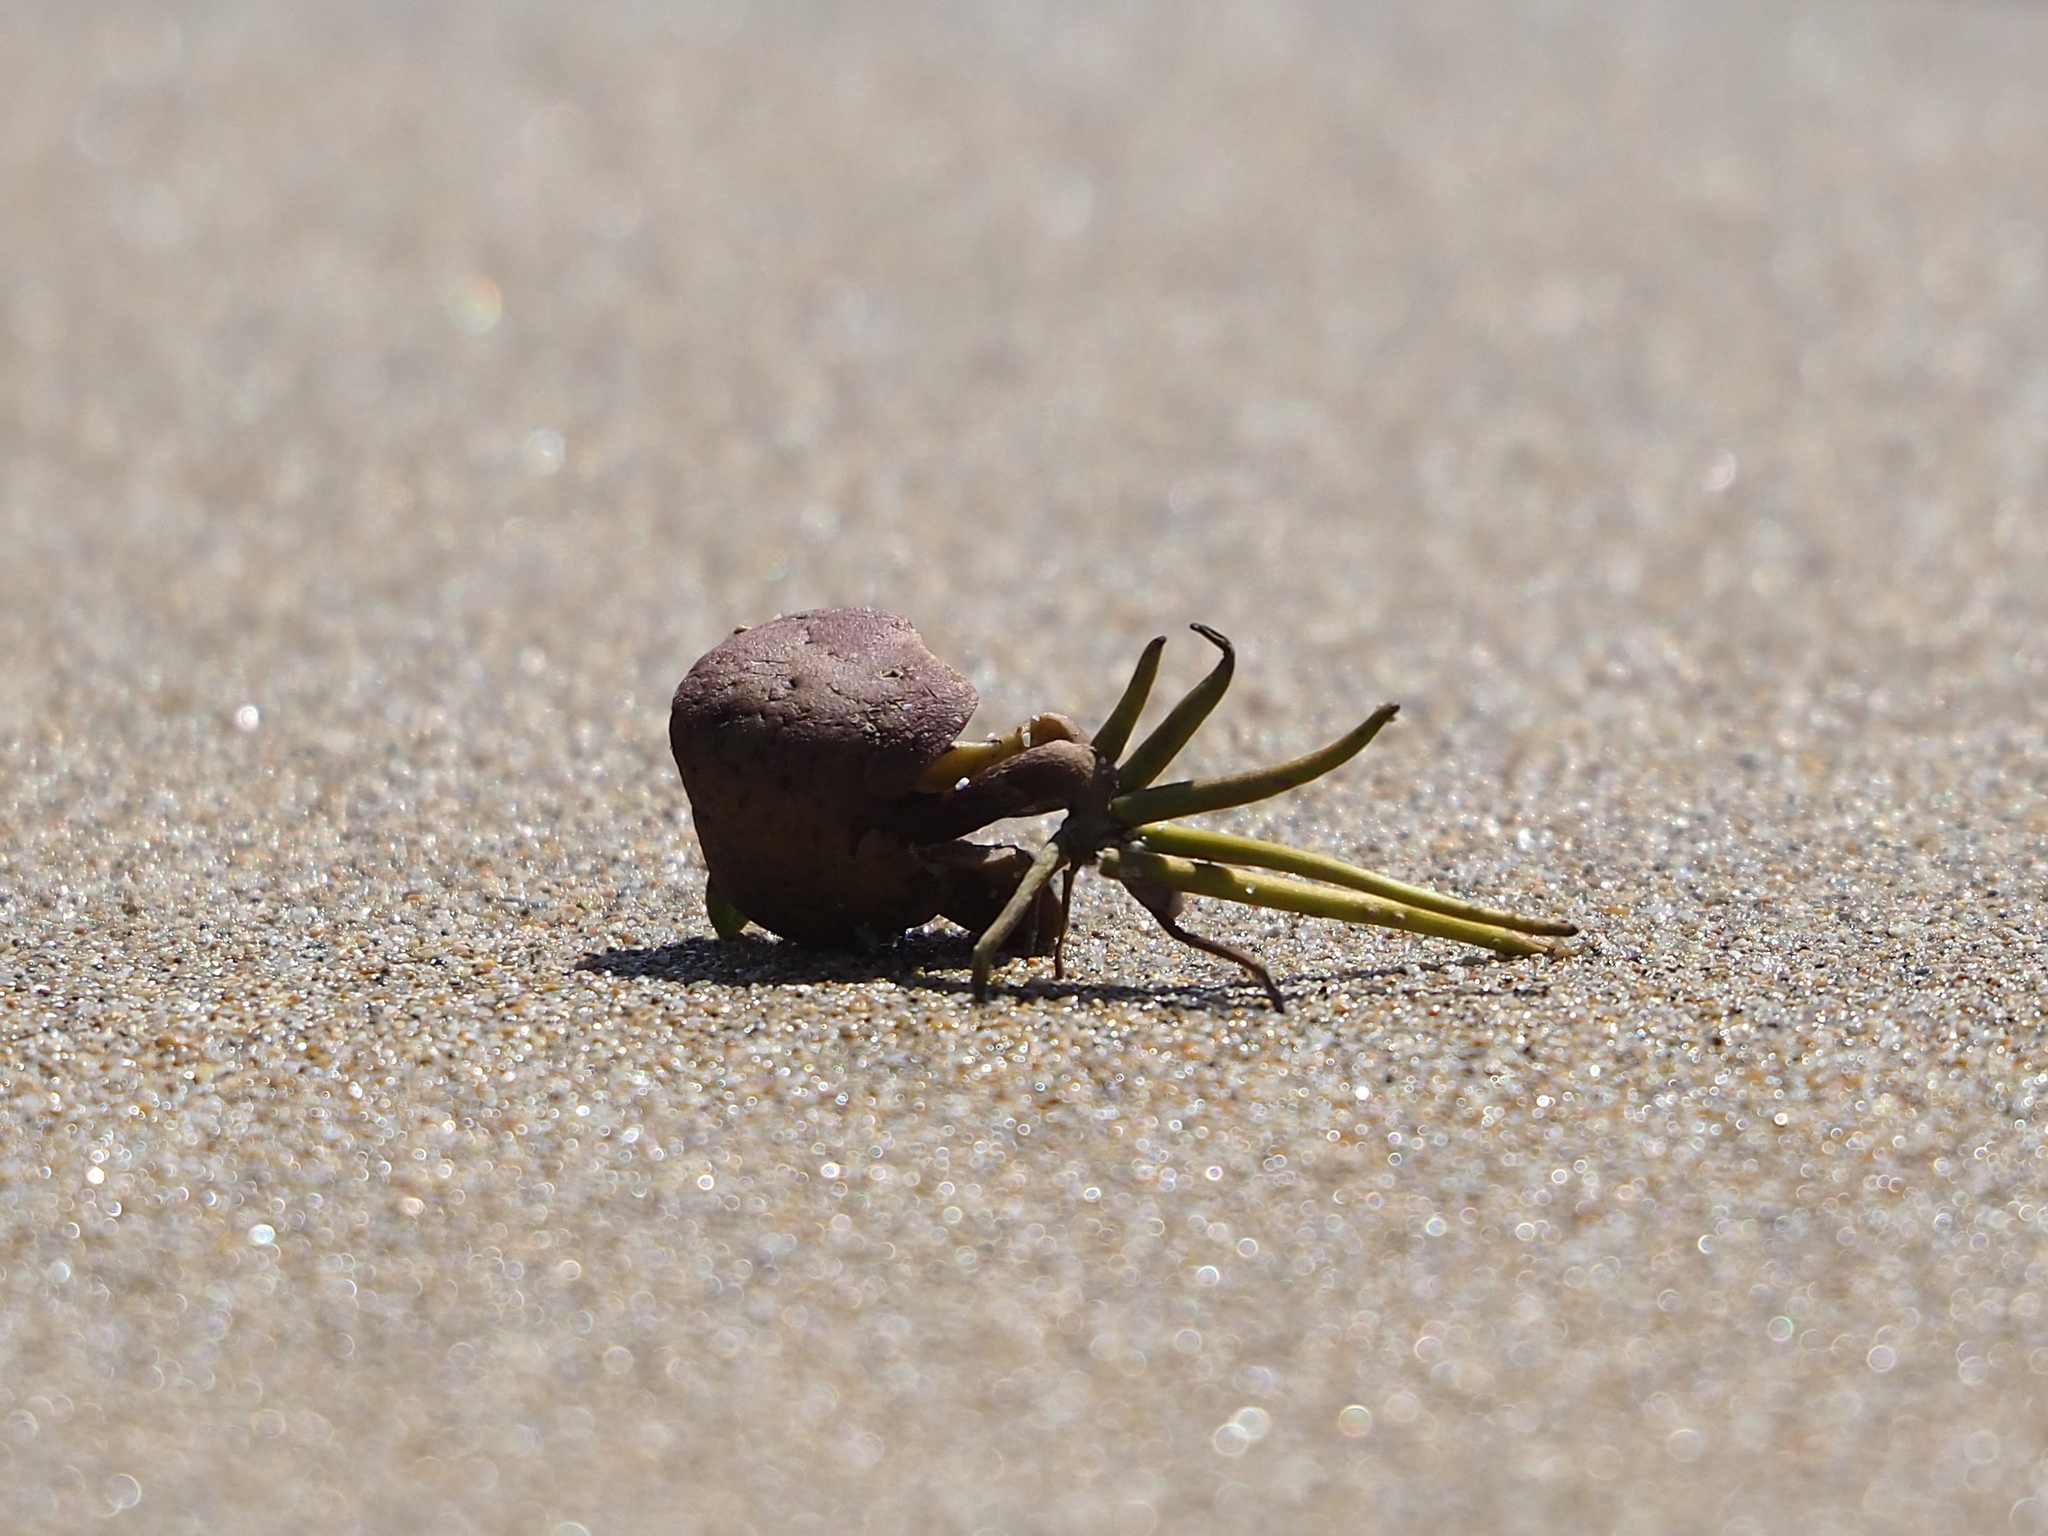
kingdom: Plantae
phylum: Tracheophyta
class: Magnoliopsida
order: Lamiales
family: Acanthaceae
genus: Avicennia
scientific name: Avicennia marina
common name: Gray mangrove
